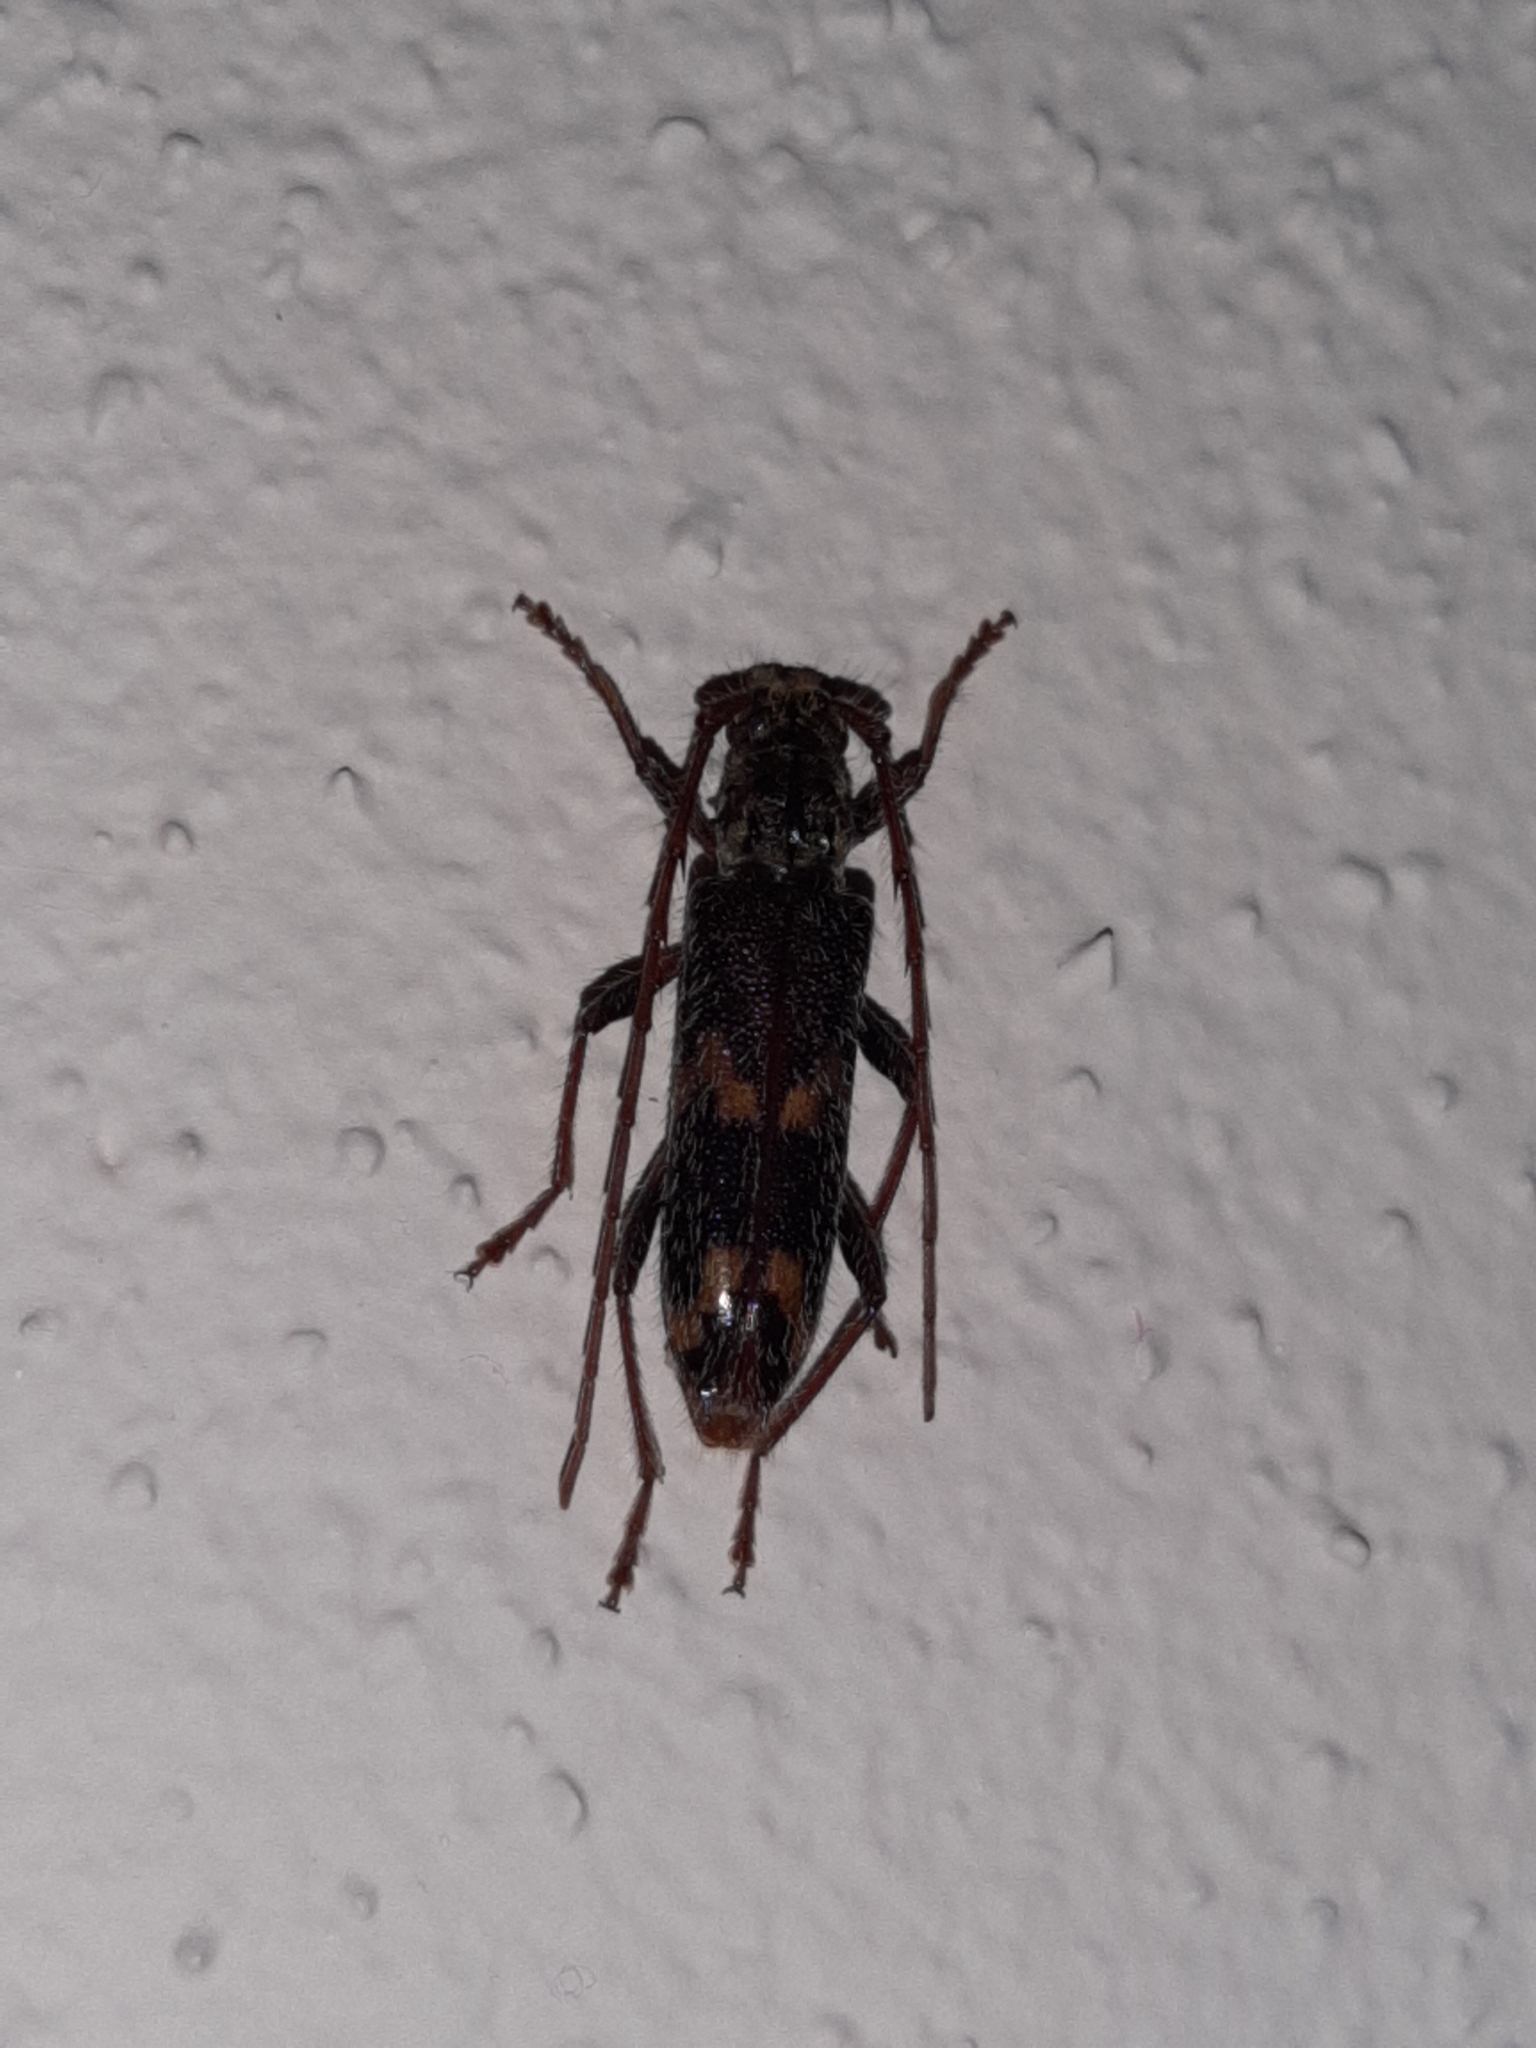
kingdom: Animalia
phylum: Arthropoda
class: Insecta
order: Coleoptera
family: Cerambycidae
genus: Eurysthea
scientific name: Eurysthea cribripennis
